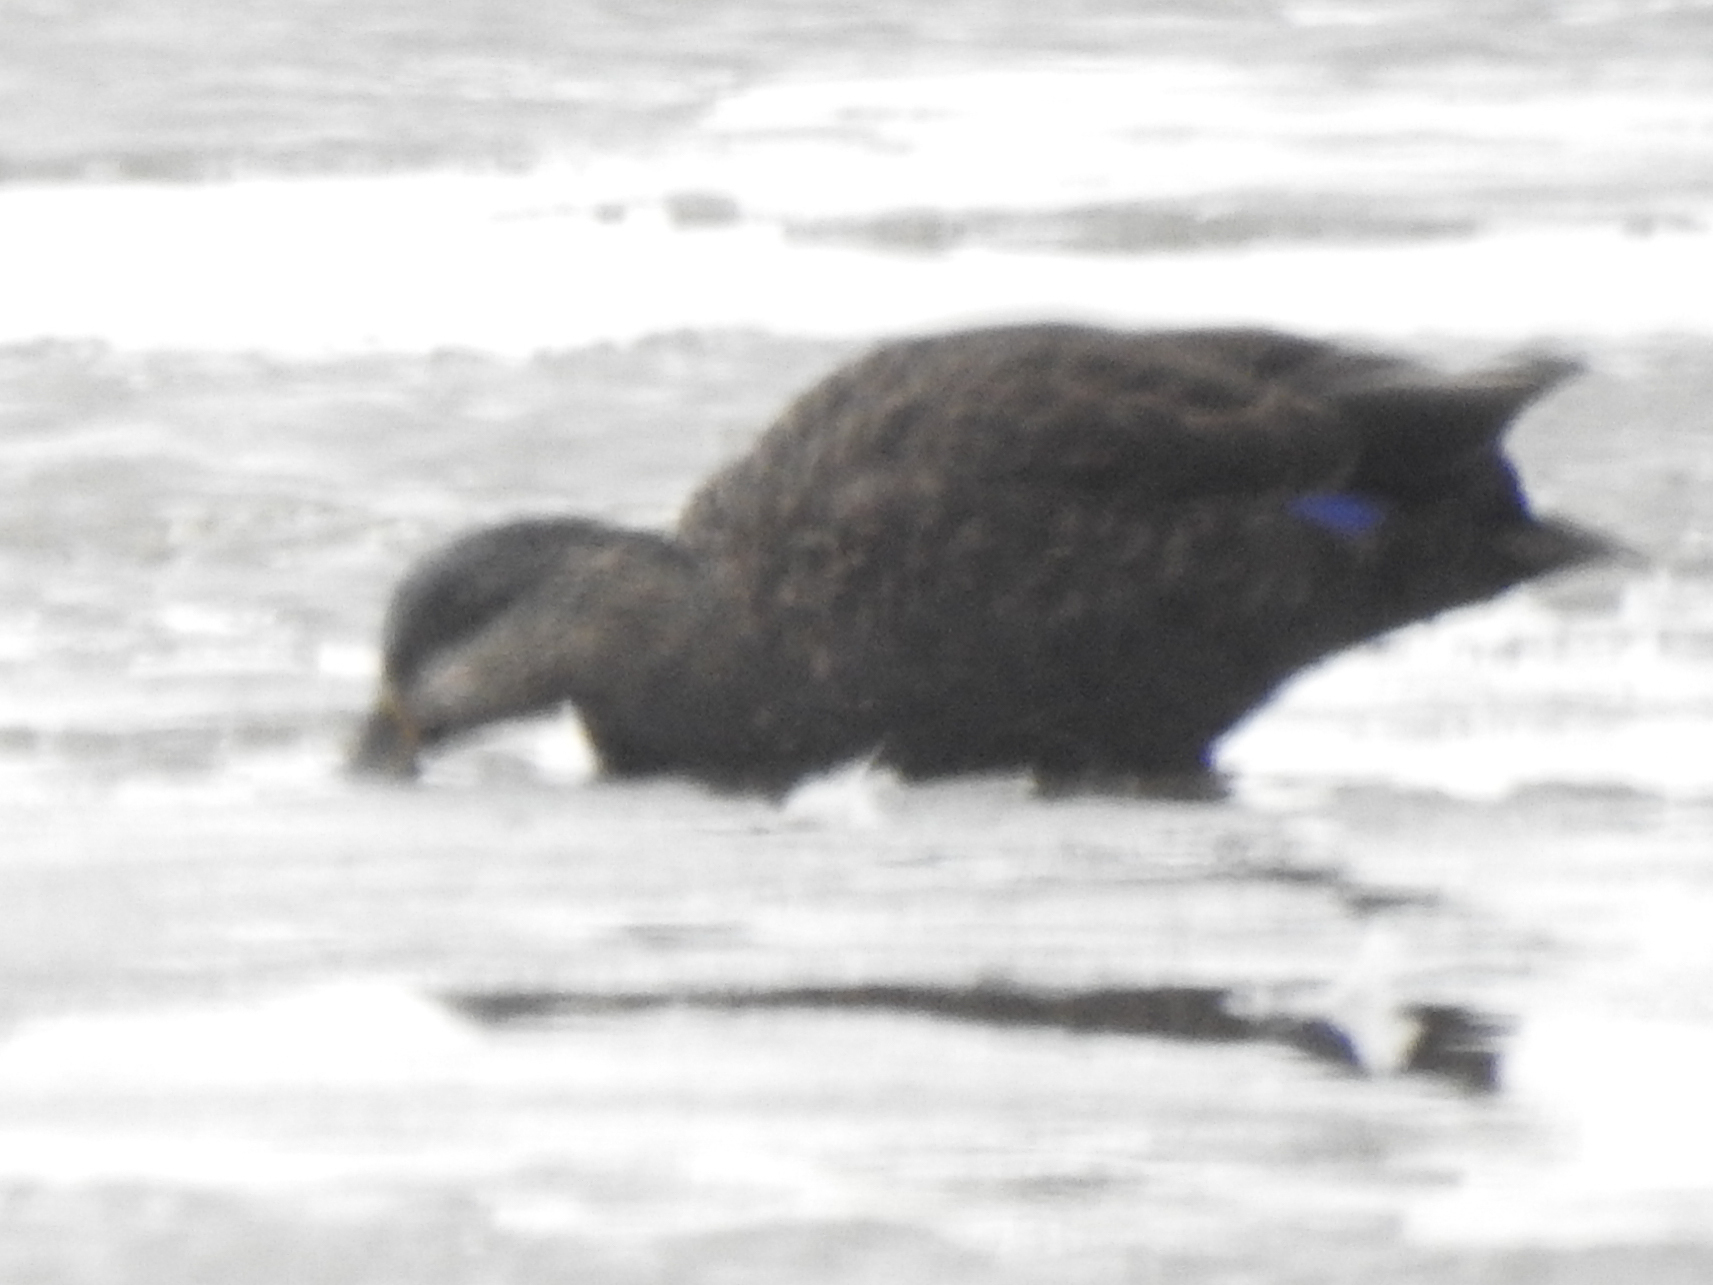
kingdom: Animalia
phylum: Chordata
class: Aves
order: Anseriformes
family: Anatidae
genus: Anas
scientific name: Anas rubripes
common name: American black duck
